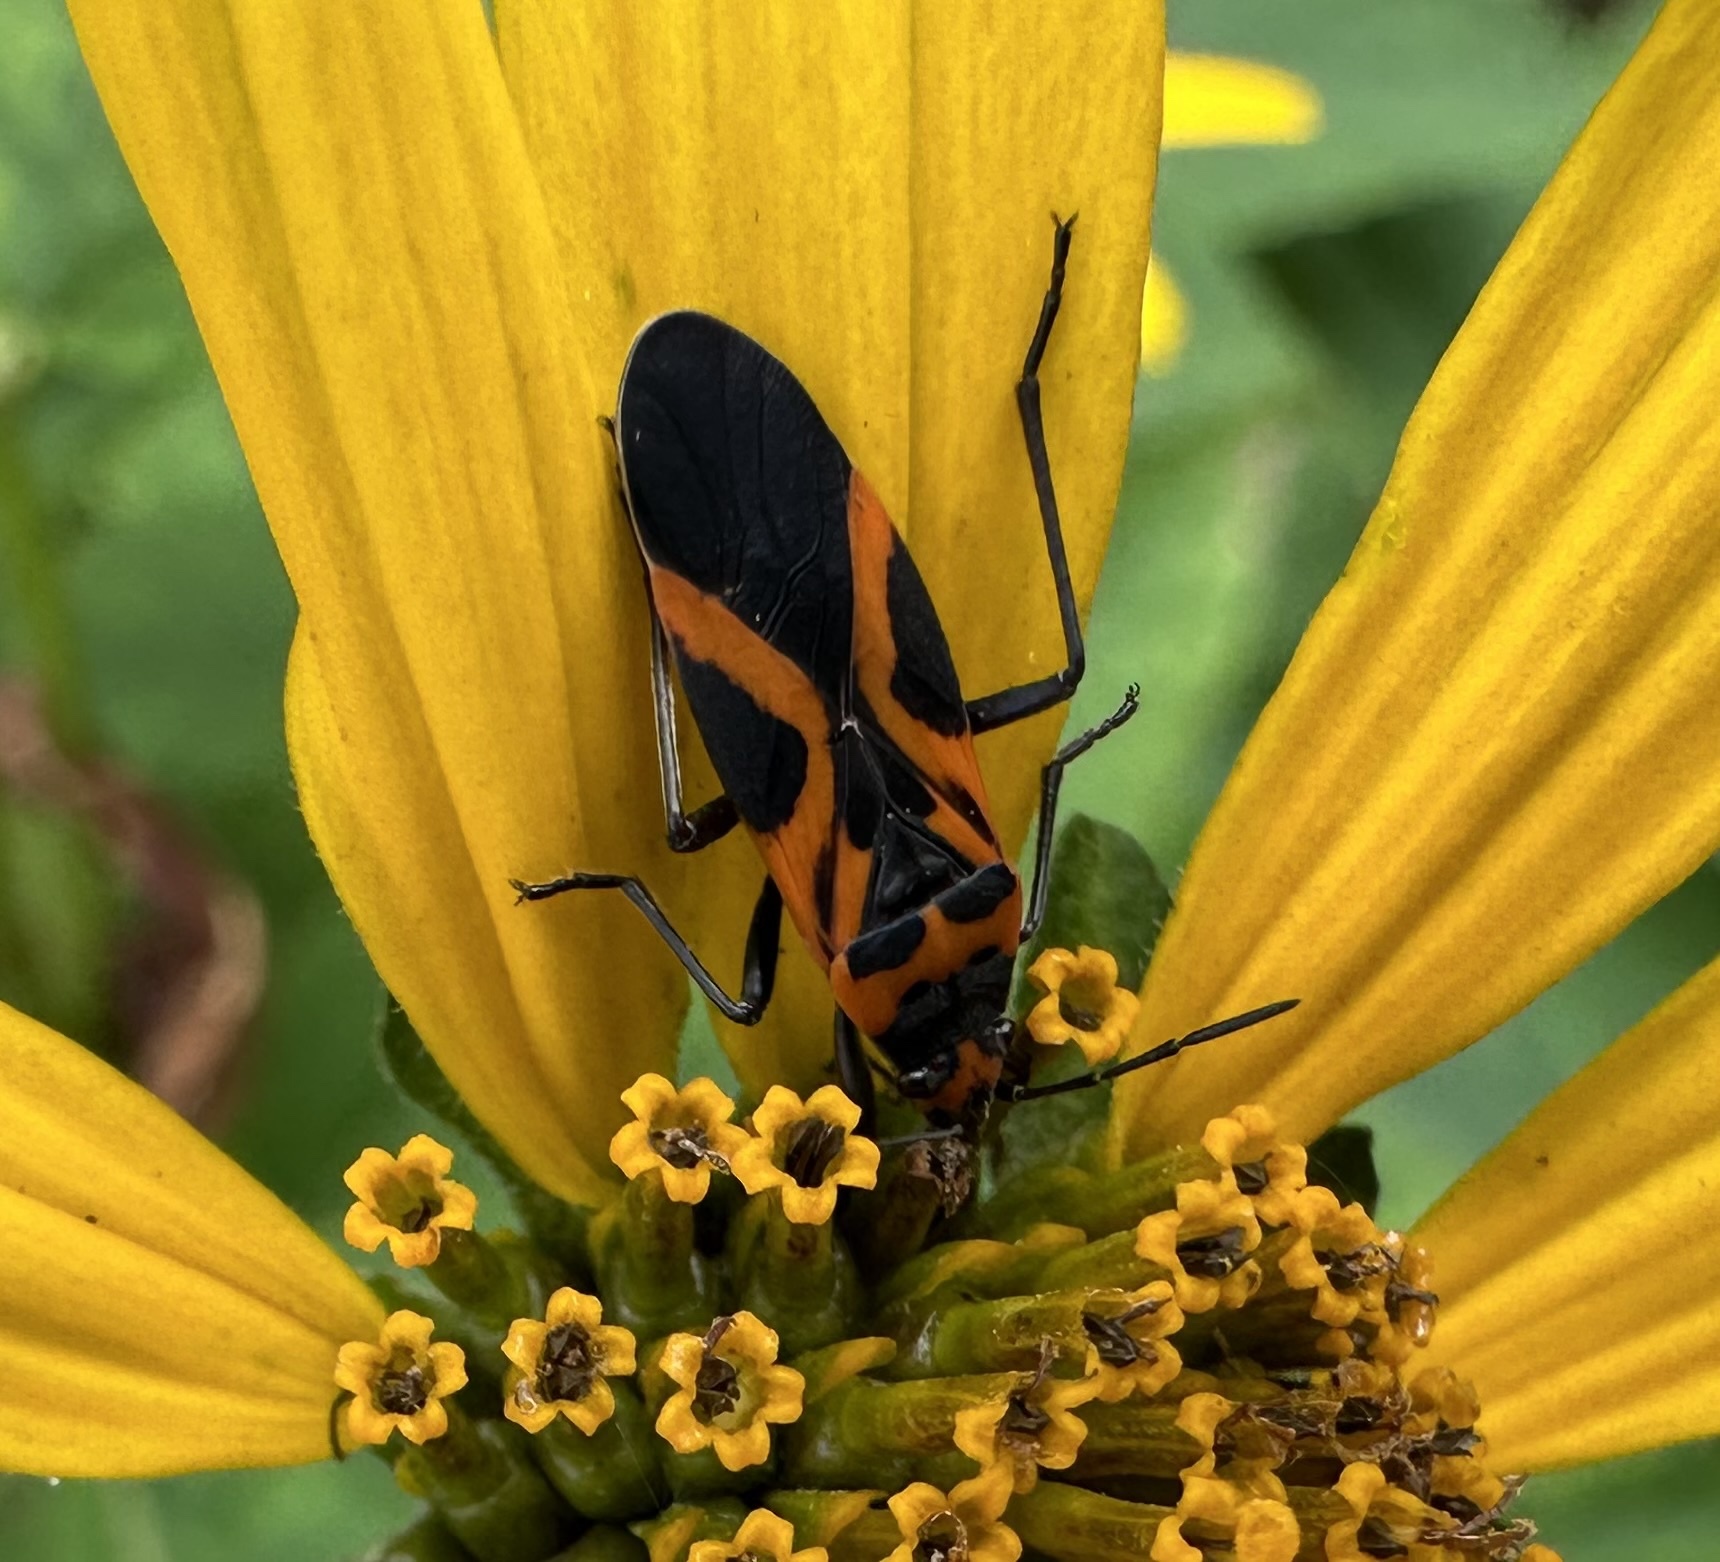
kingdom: Animalia
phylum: Arthropoda
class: Insecta
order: Hemiptera
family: Lygaeidae
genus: Lygaeus
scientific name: Lygaeus turcicus
